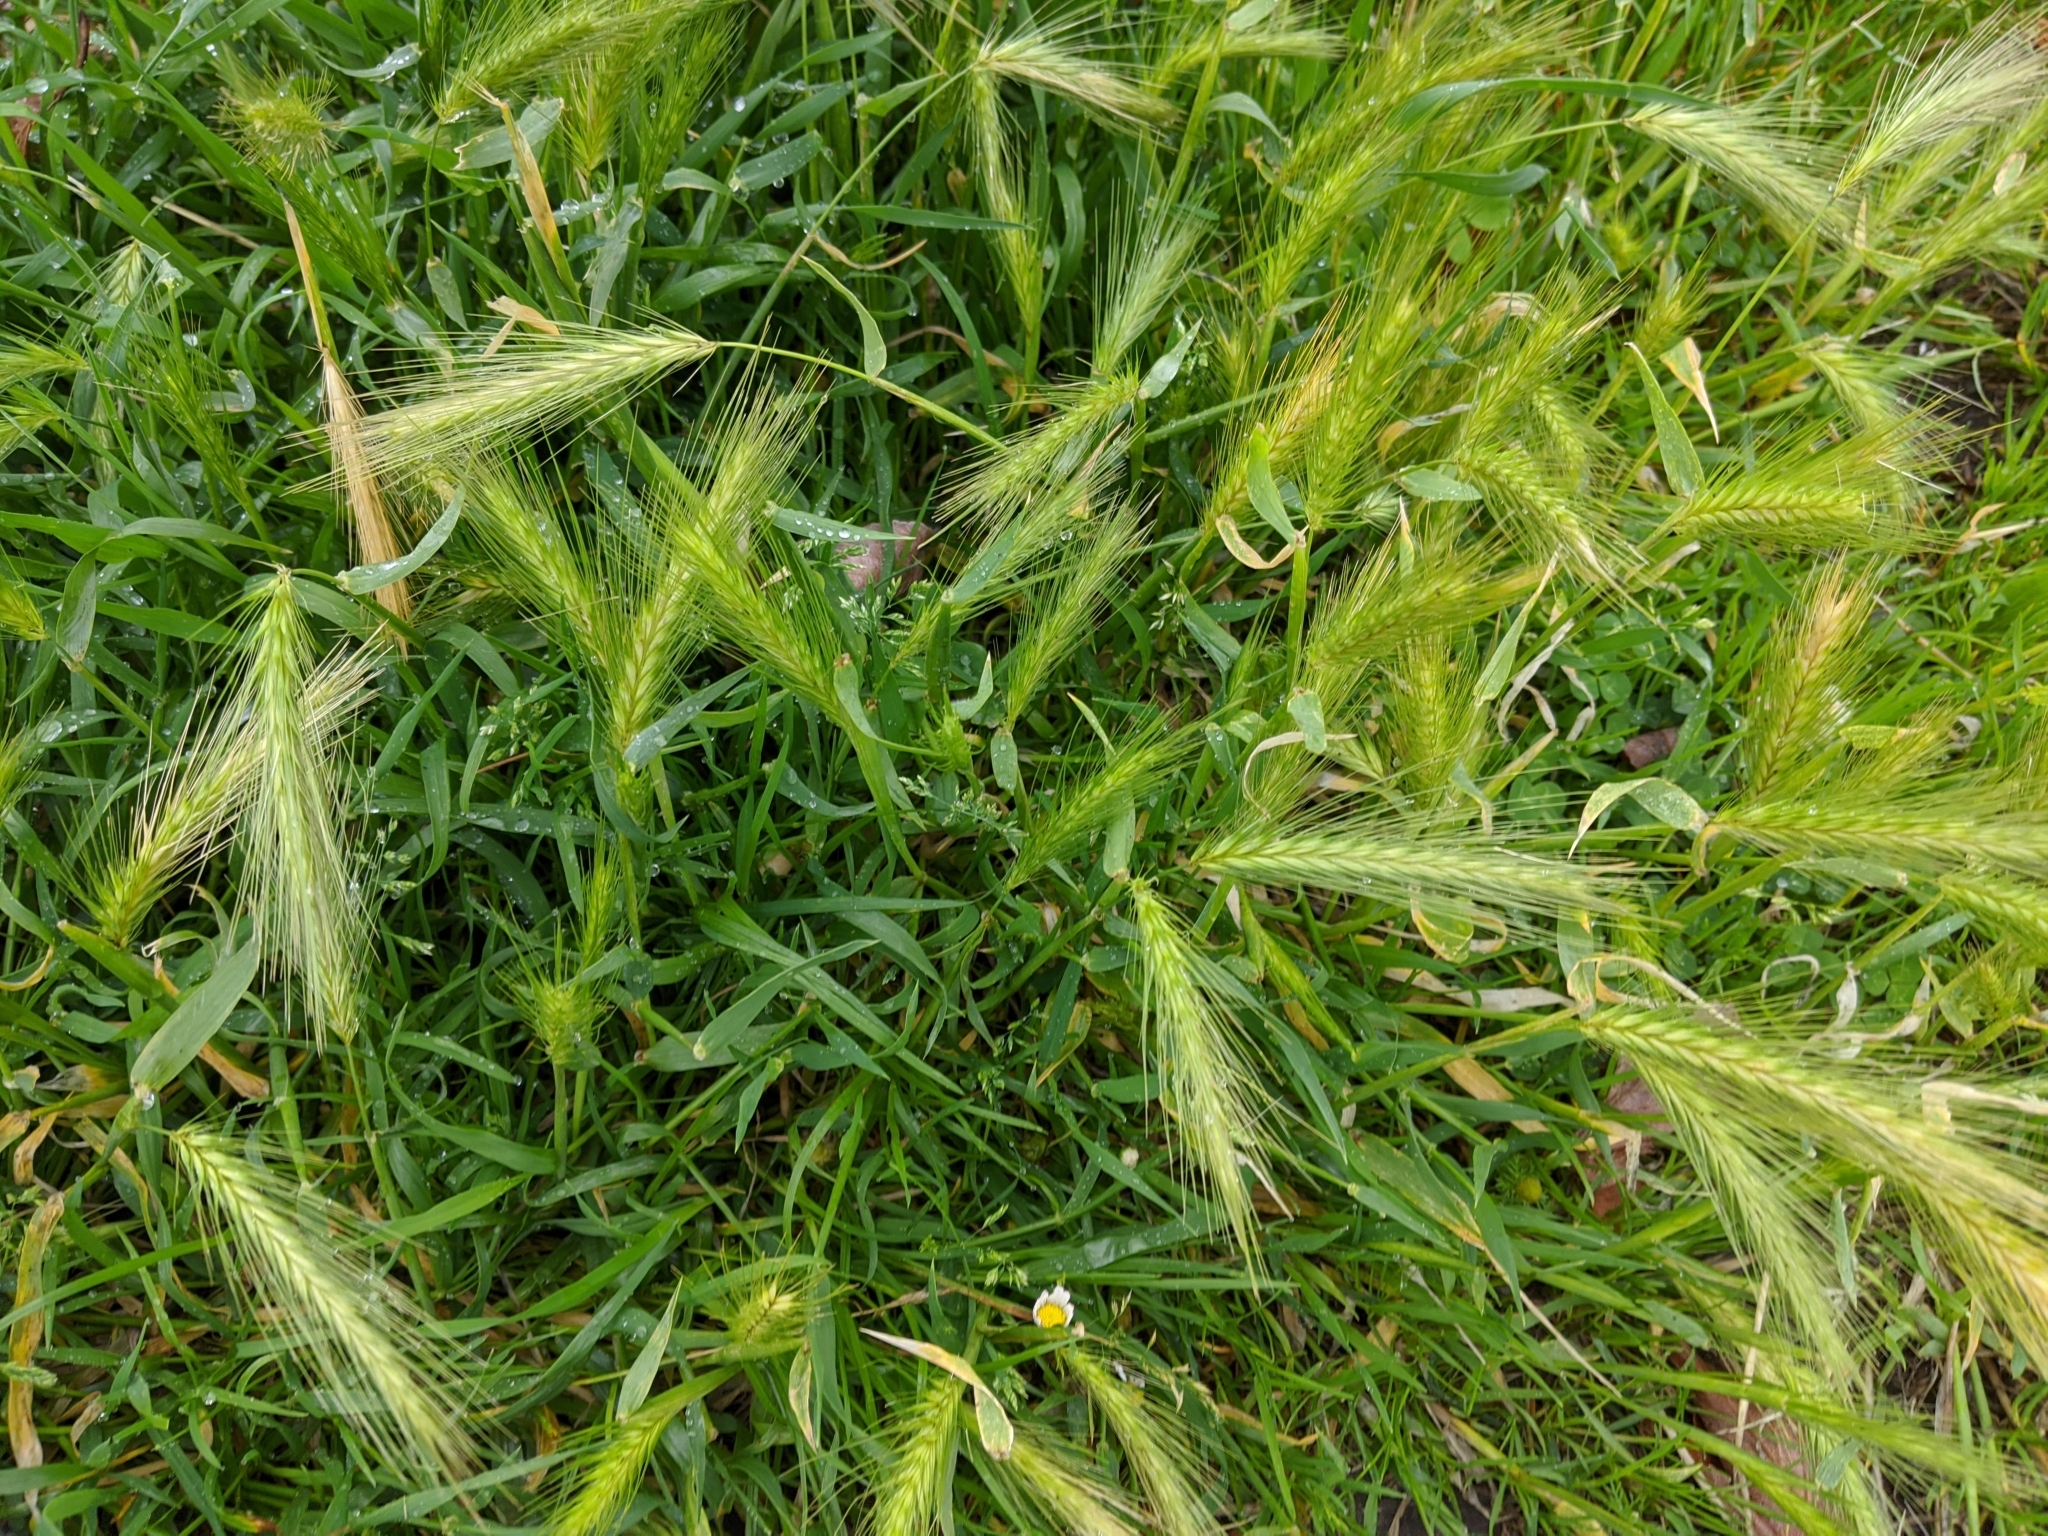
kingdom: Plantae
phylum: Tracheophyta
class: Liliopsida
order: Poales
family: Poaceae
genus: Hordeum
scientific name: Hordeum murinum
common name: Wall barley
